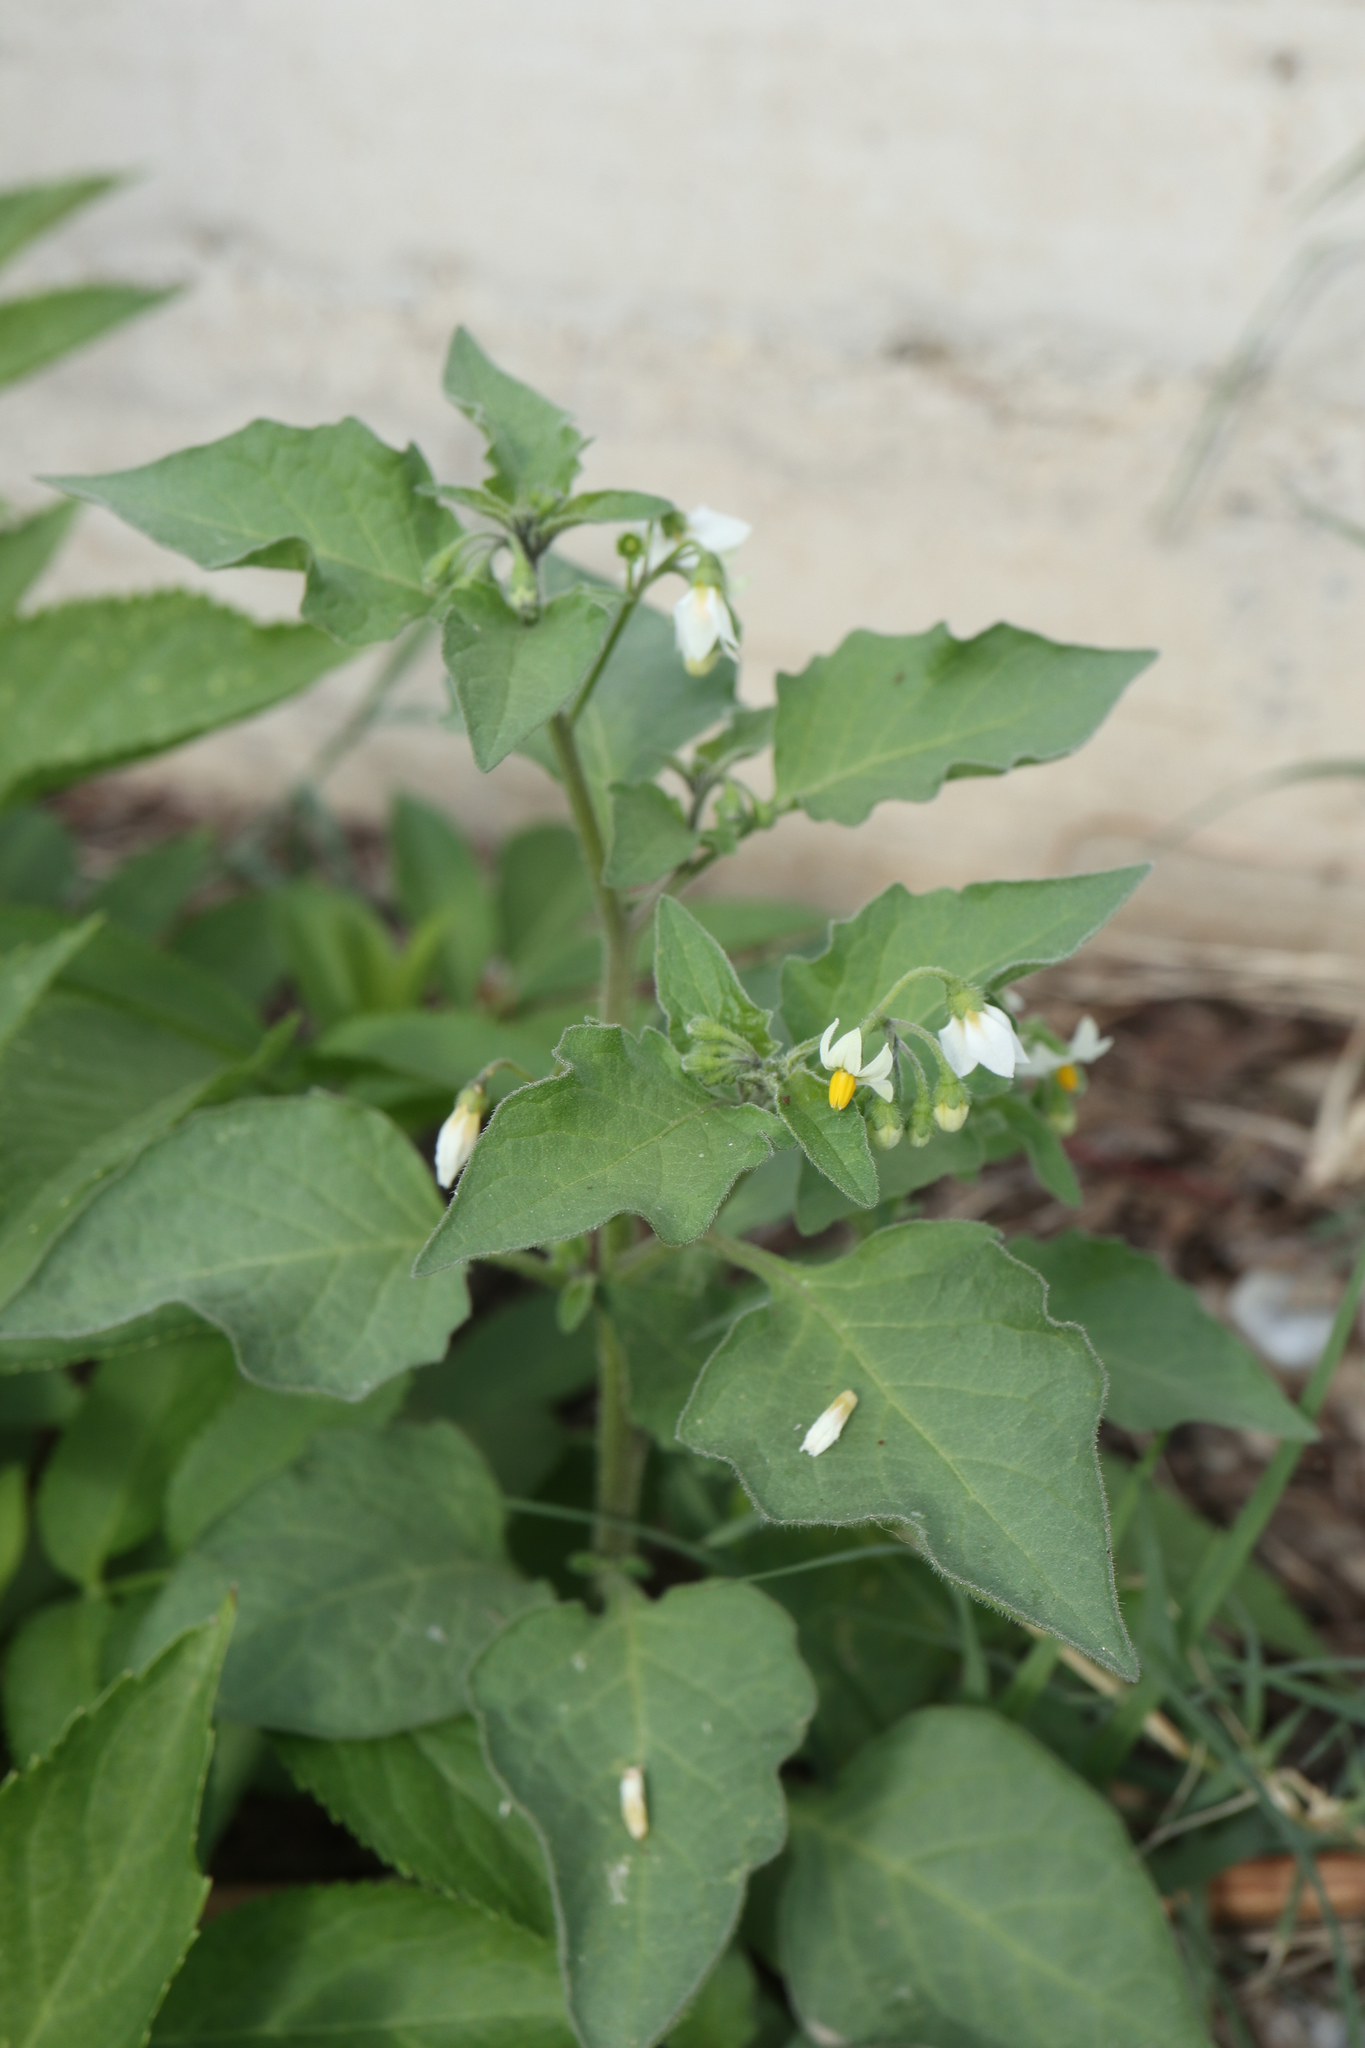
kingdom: Plantae
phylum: Tracheophyta
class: Magnoliopsida
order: Solanales
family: Solanaceae
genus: Solanum
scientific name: Solanum nigrum
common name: Black nightshade
